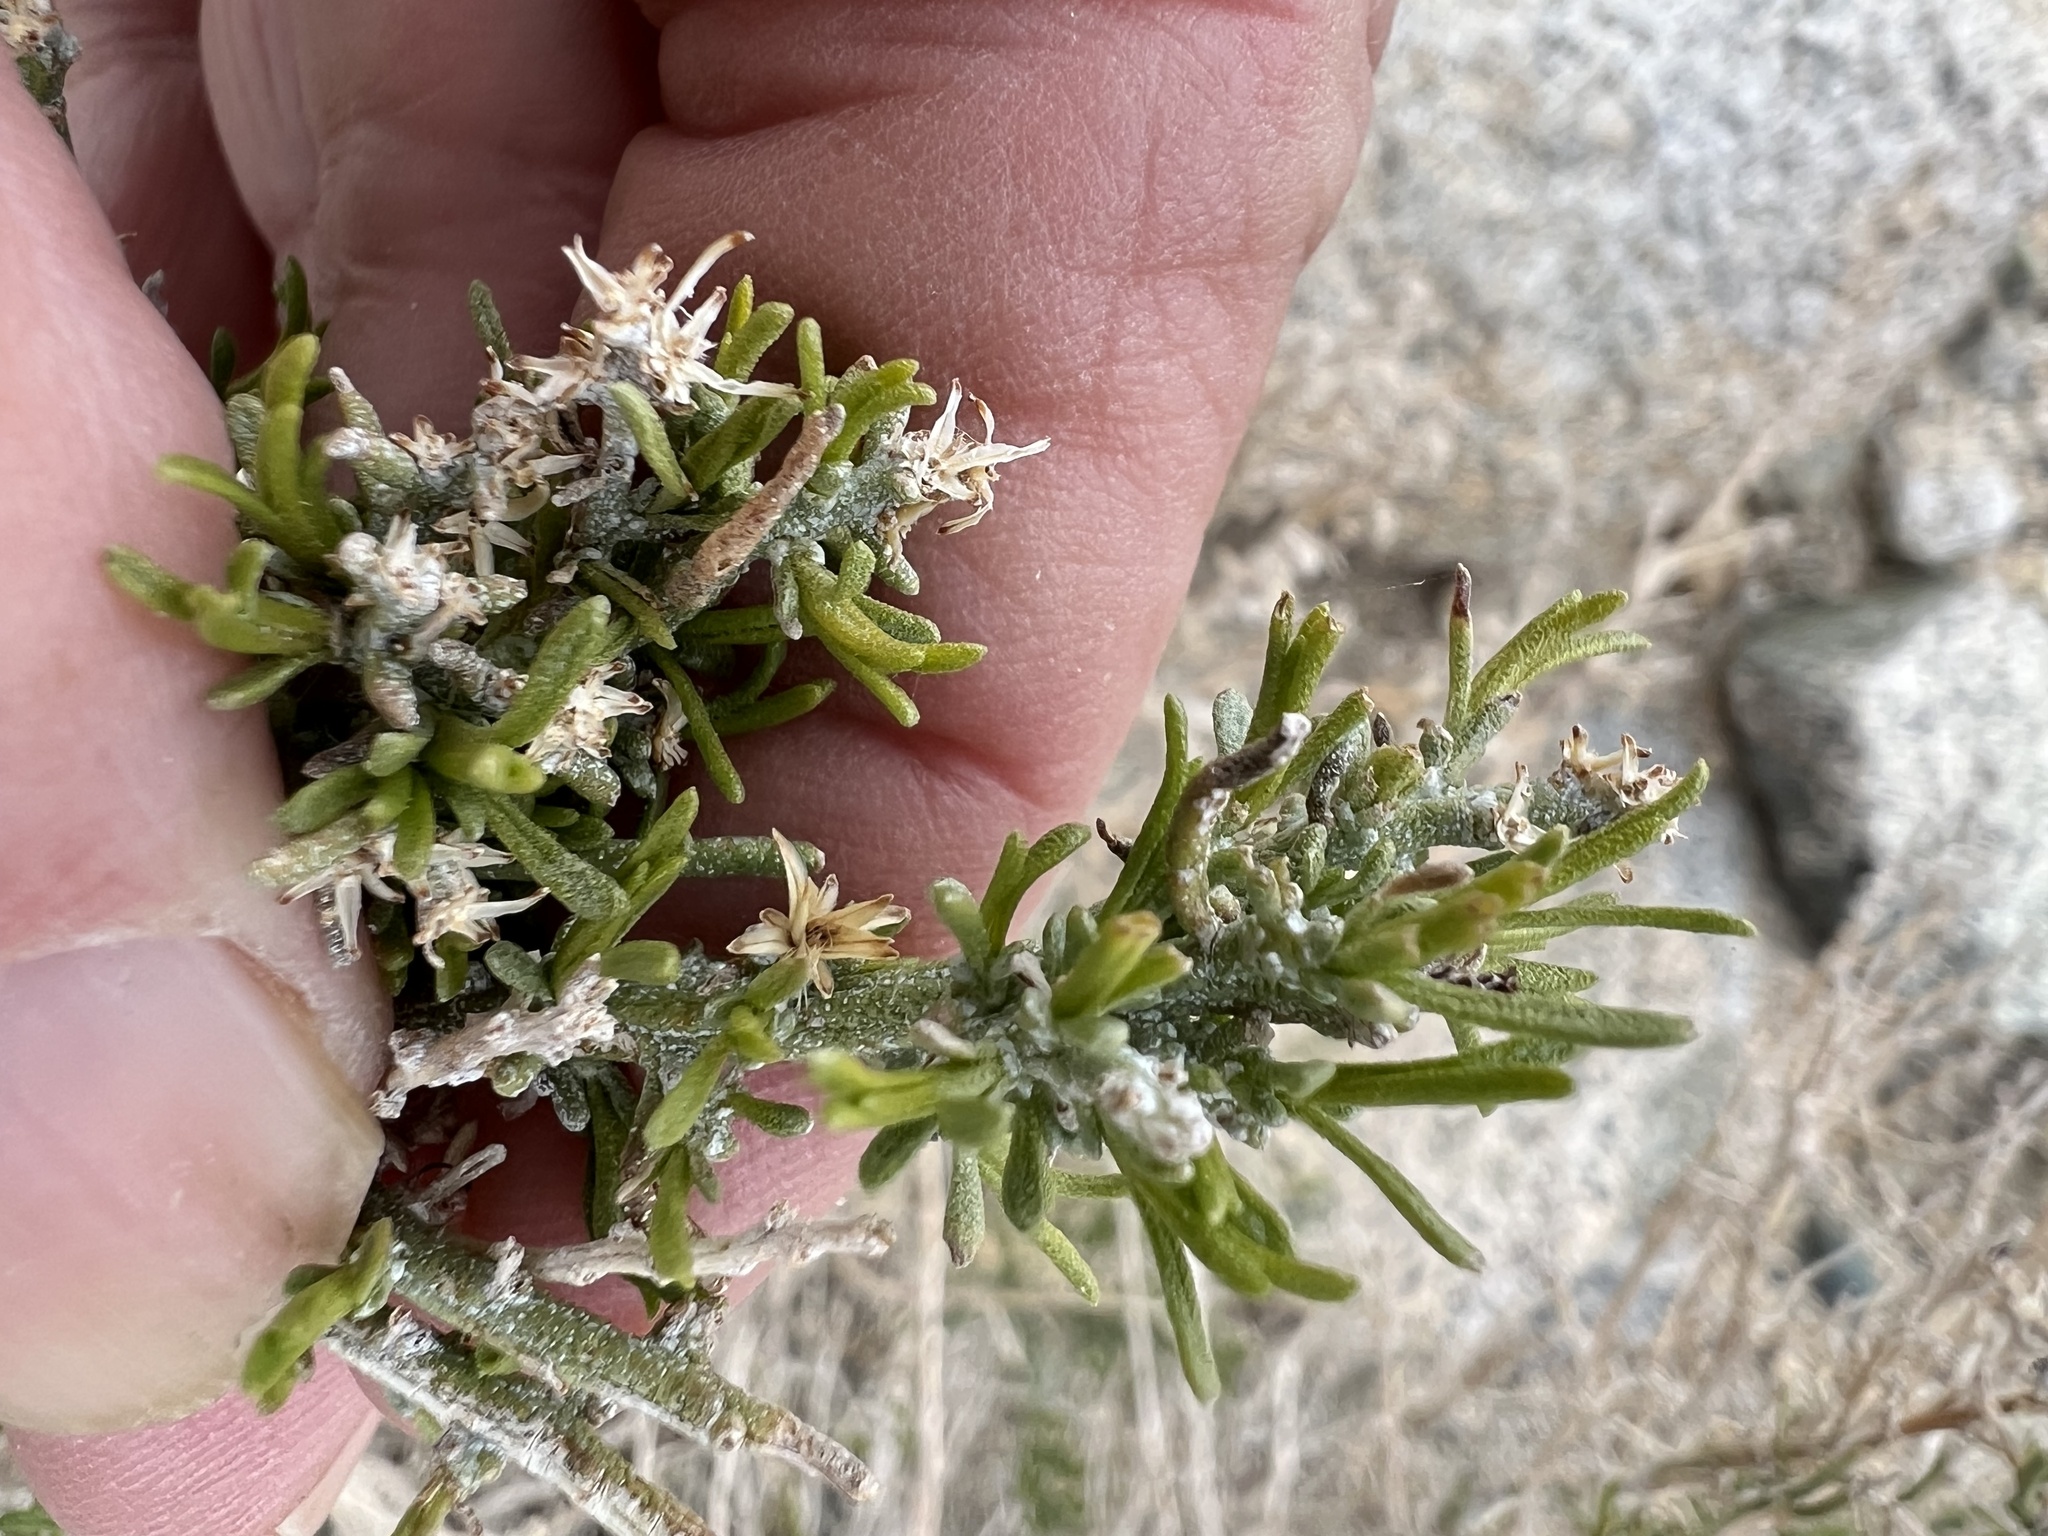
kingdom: Plantae
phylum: Tracheophyta
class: Magnoliopsida
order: Asterales
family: Asteraceae
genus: Ericameria
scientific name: Ericameria teretifolia
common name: Round-leaf rabbitbrush
